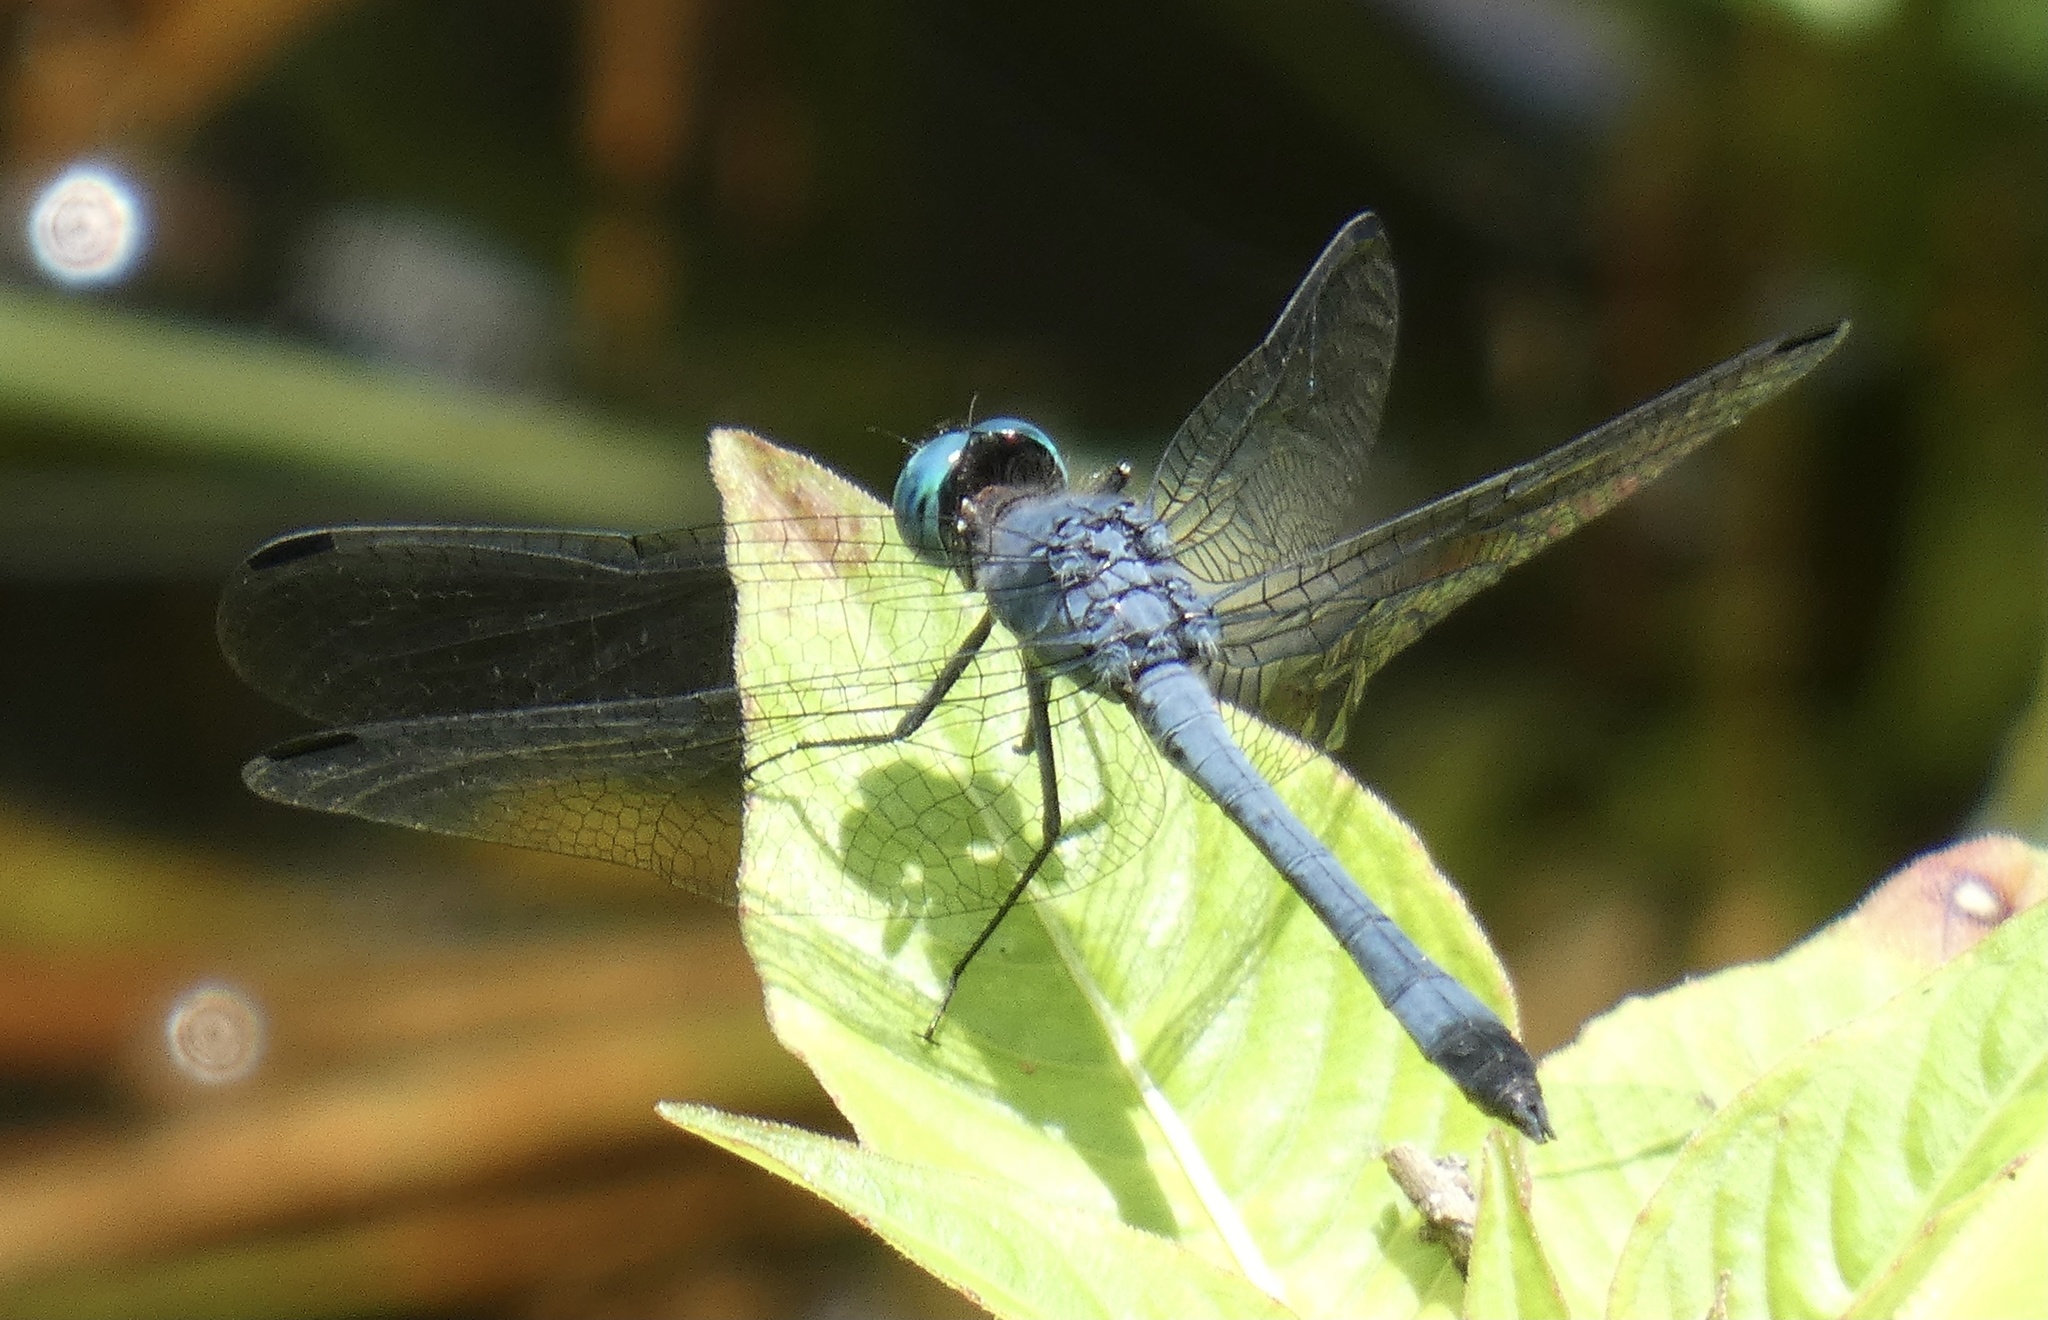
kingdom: Animalia
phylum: Arthropoda
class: Insecta
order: Odonata
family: Libellulidae
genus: Micrathyria
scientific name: Micrathyria athenais
